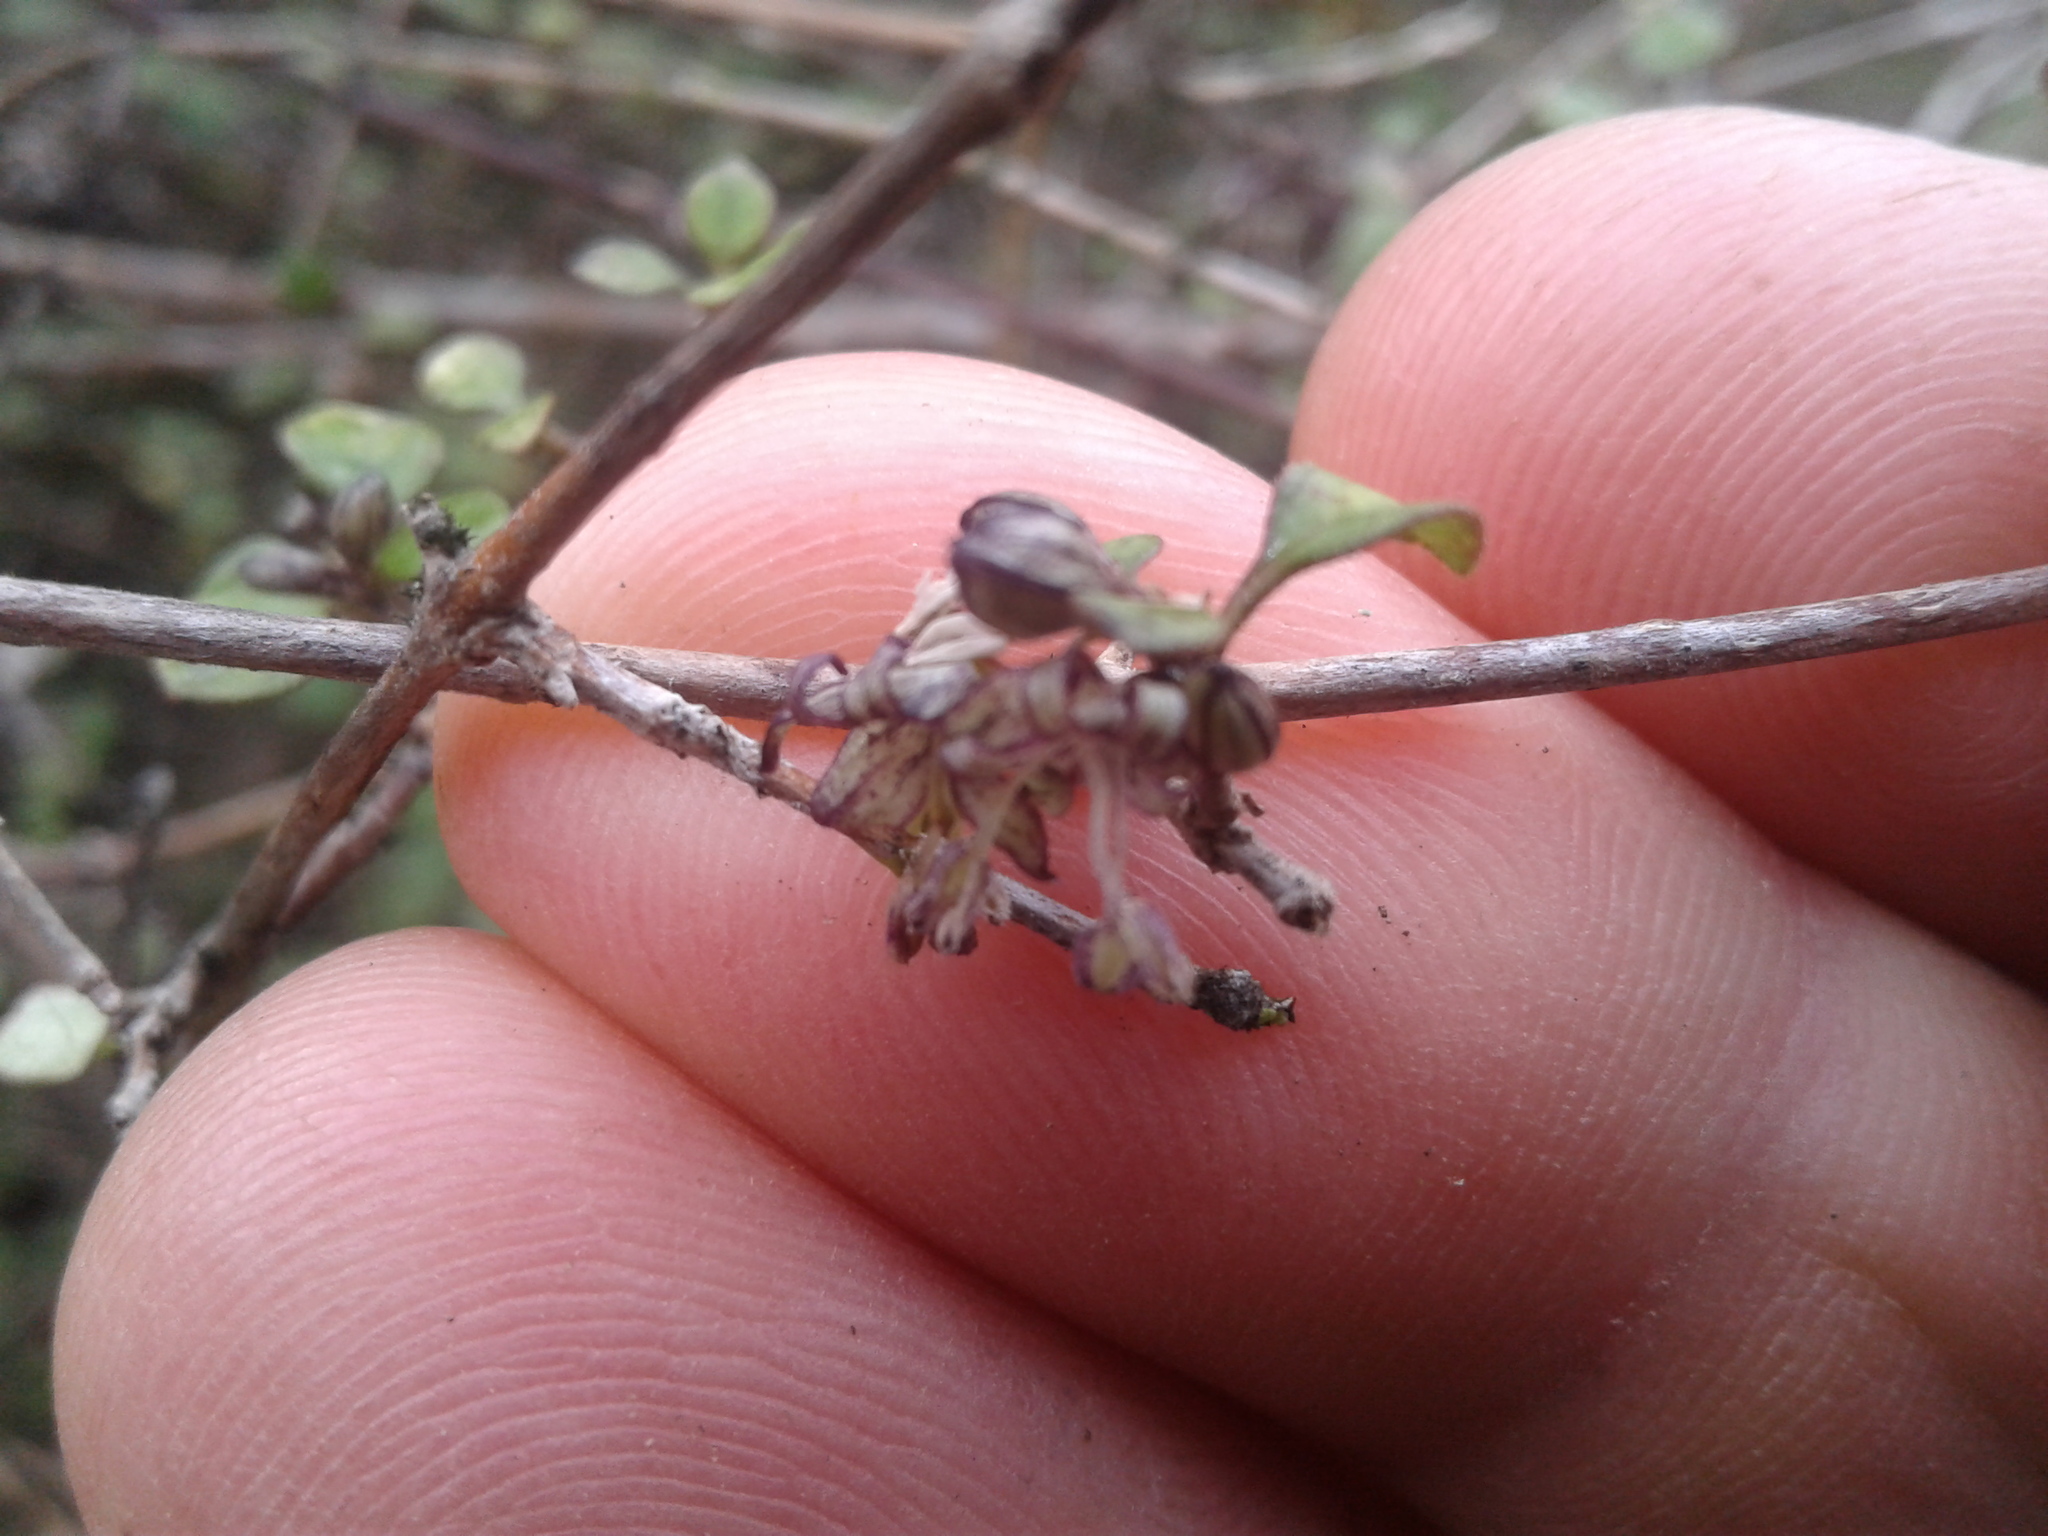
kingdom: Plantae
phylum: Tracheophyta
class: Magnoliopsida
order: Gentianales
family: Rubiaceae
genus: Coprosma
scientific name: Coprosma tenuicaulis
